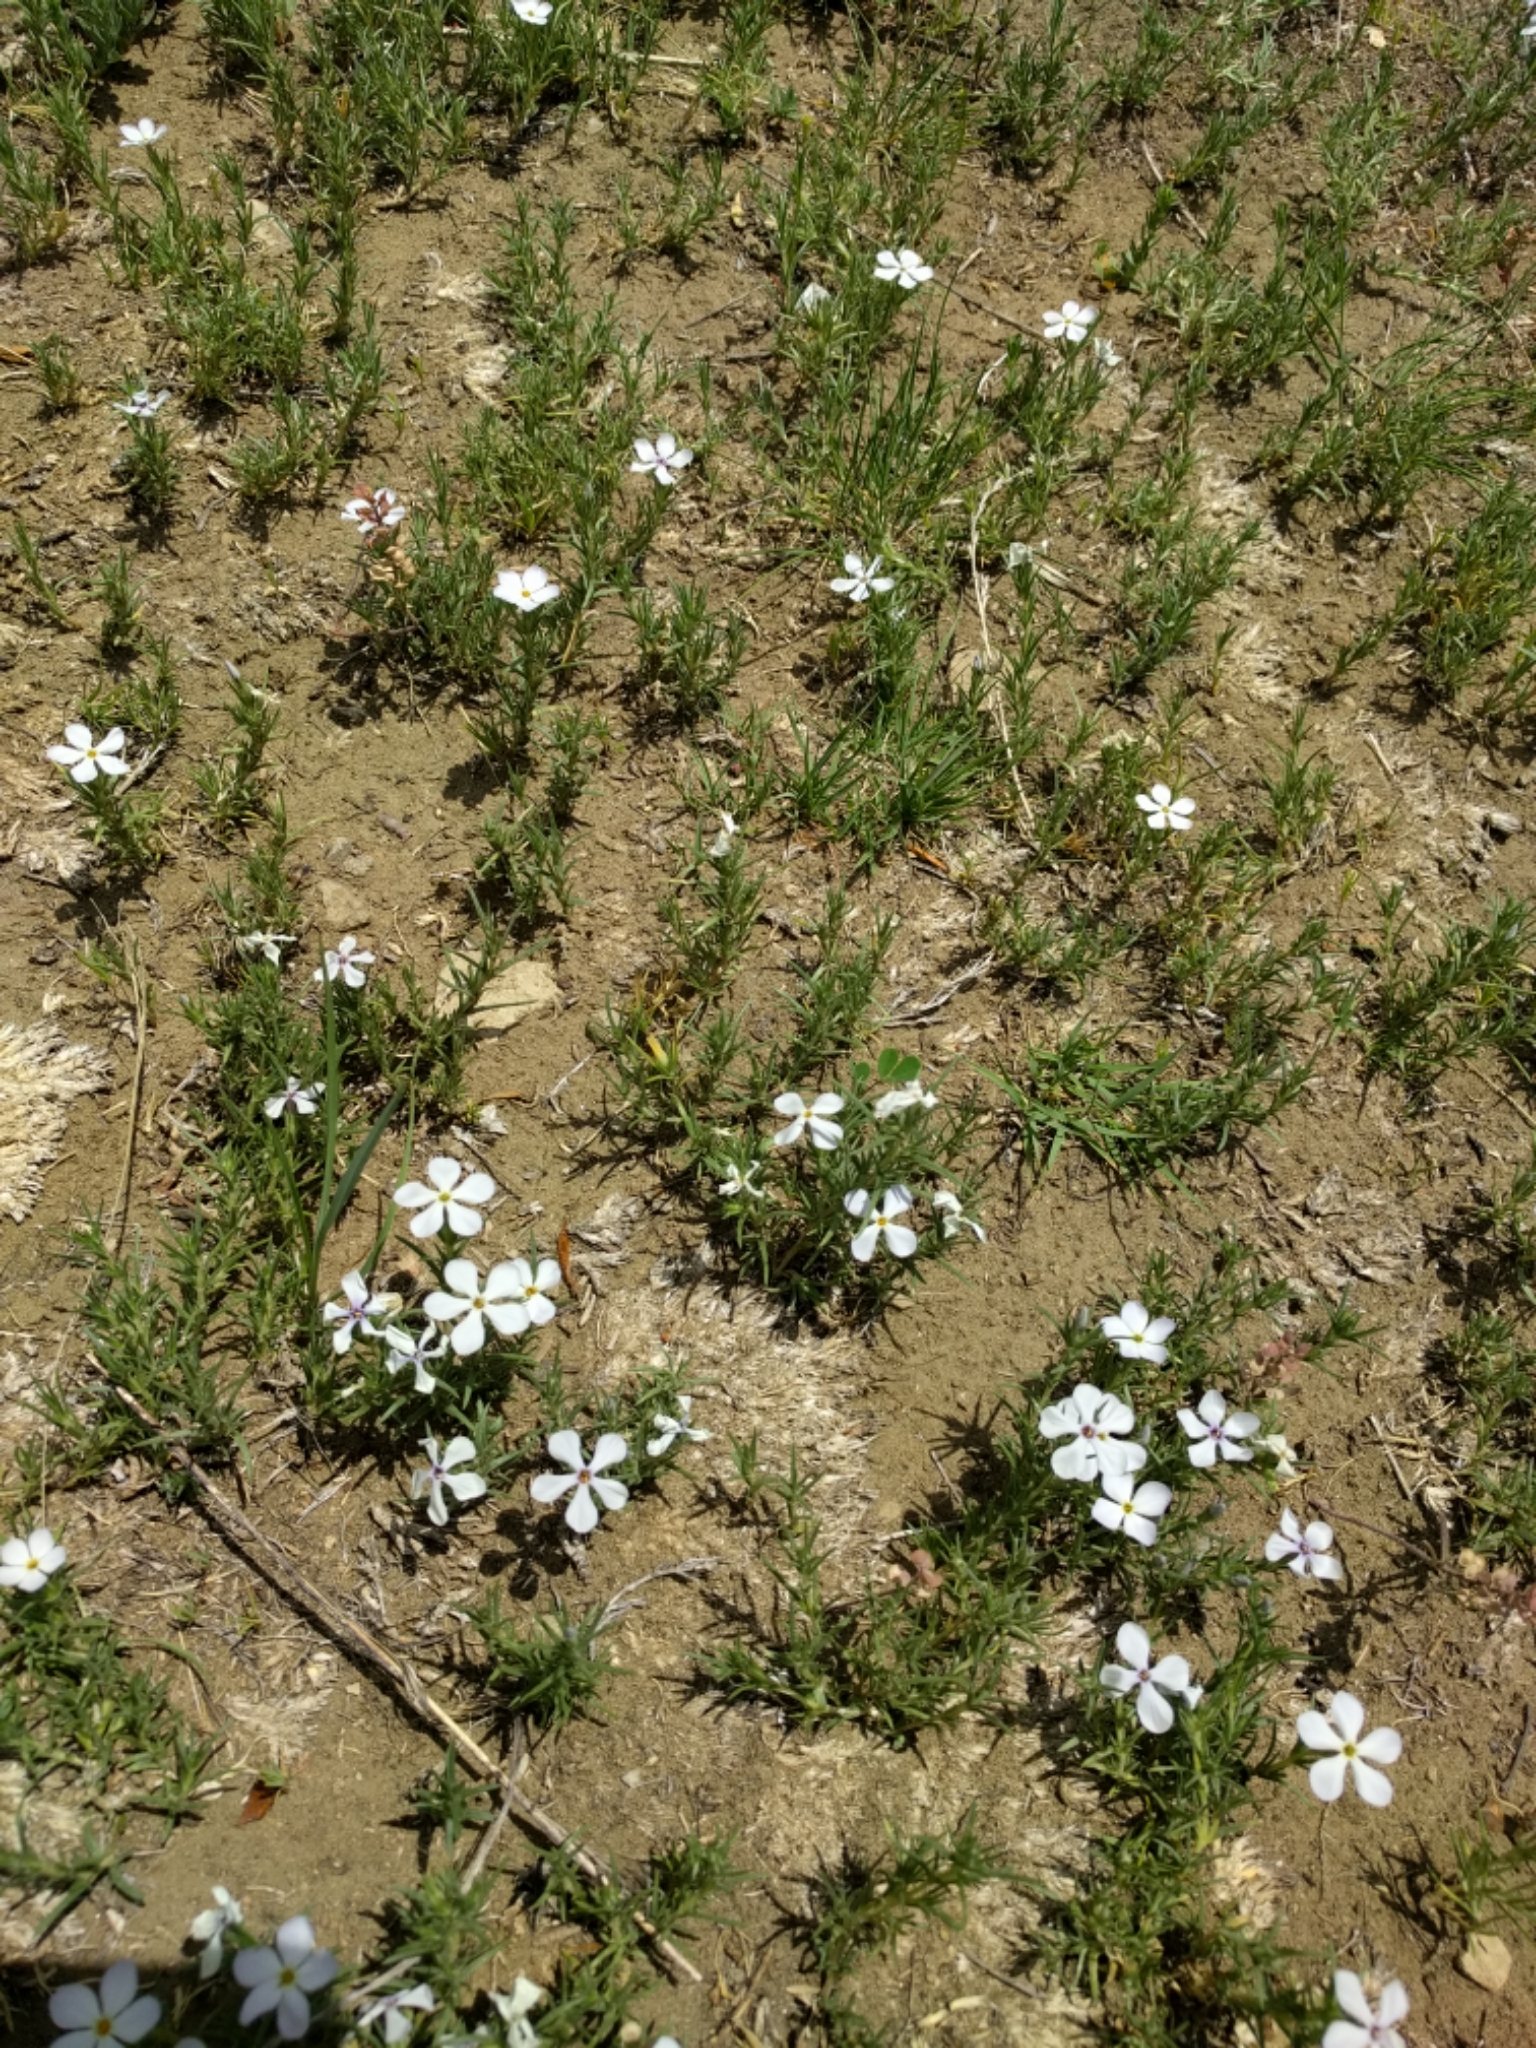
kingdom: Plantae
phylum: Tracheophyta
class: Magnoliopsida
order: Ericales
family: Polemoniaceae
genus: Phlox
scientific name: Phlox andicola
